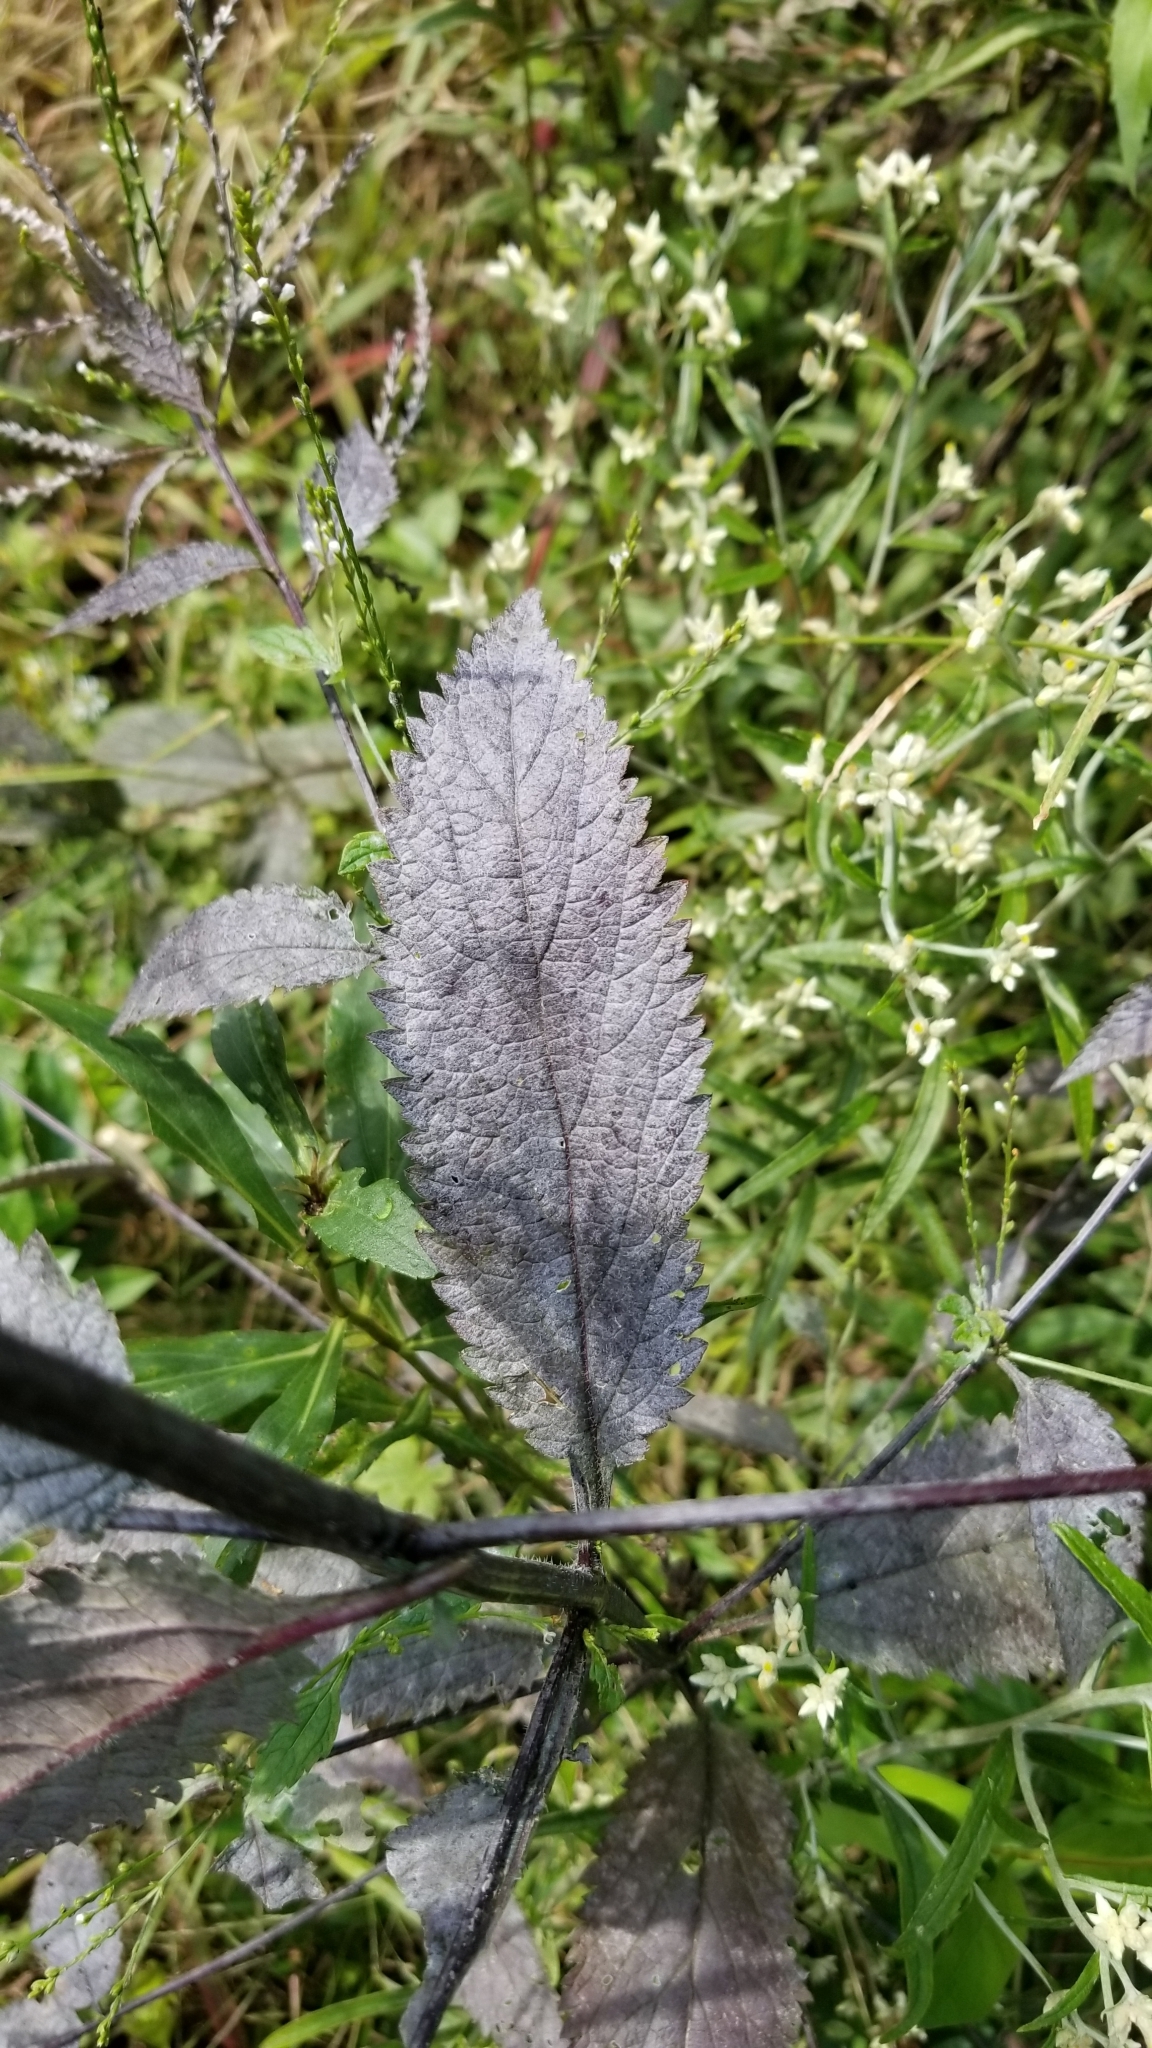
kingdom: Plantae
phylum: Tracheophyta
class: Magnoliopsida
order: Lamiales
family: Verbenaceae
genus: Verbena
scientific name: Verbena urticifolia
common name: Nettle-leaved vervain
